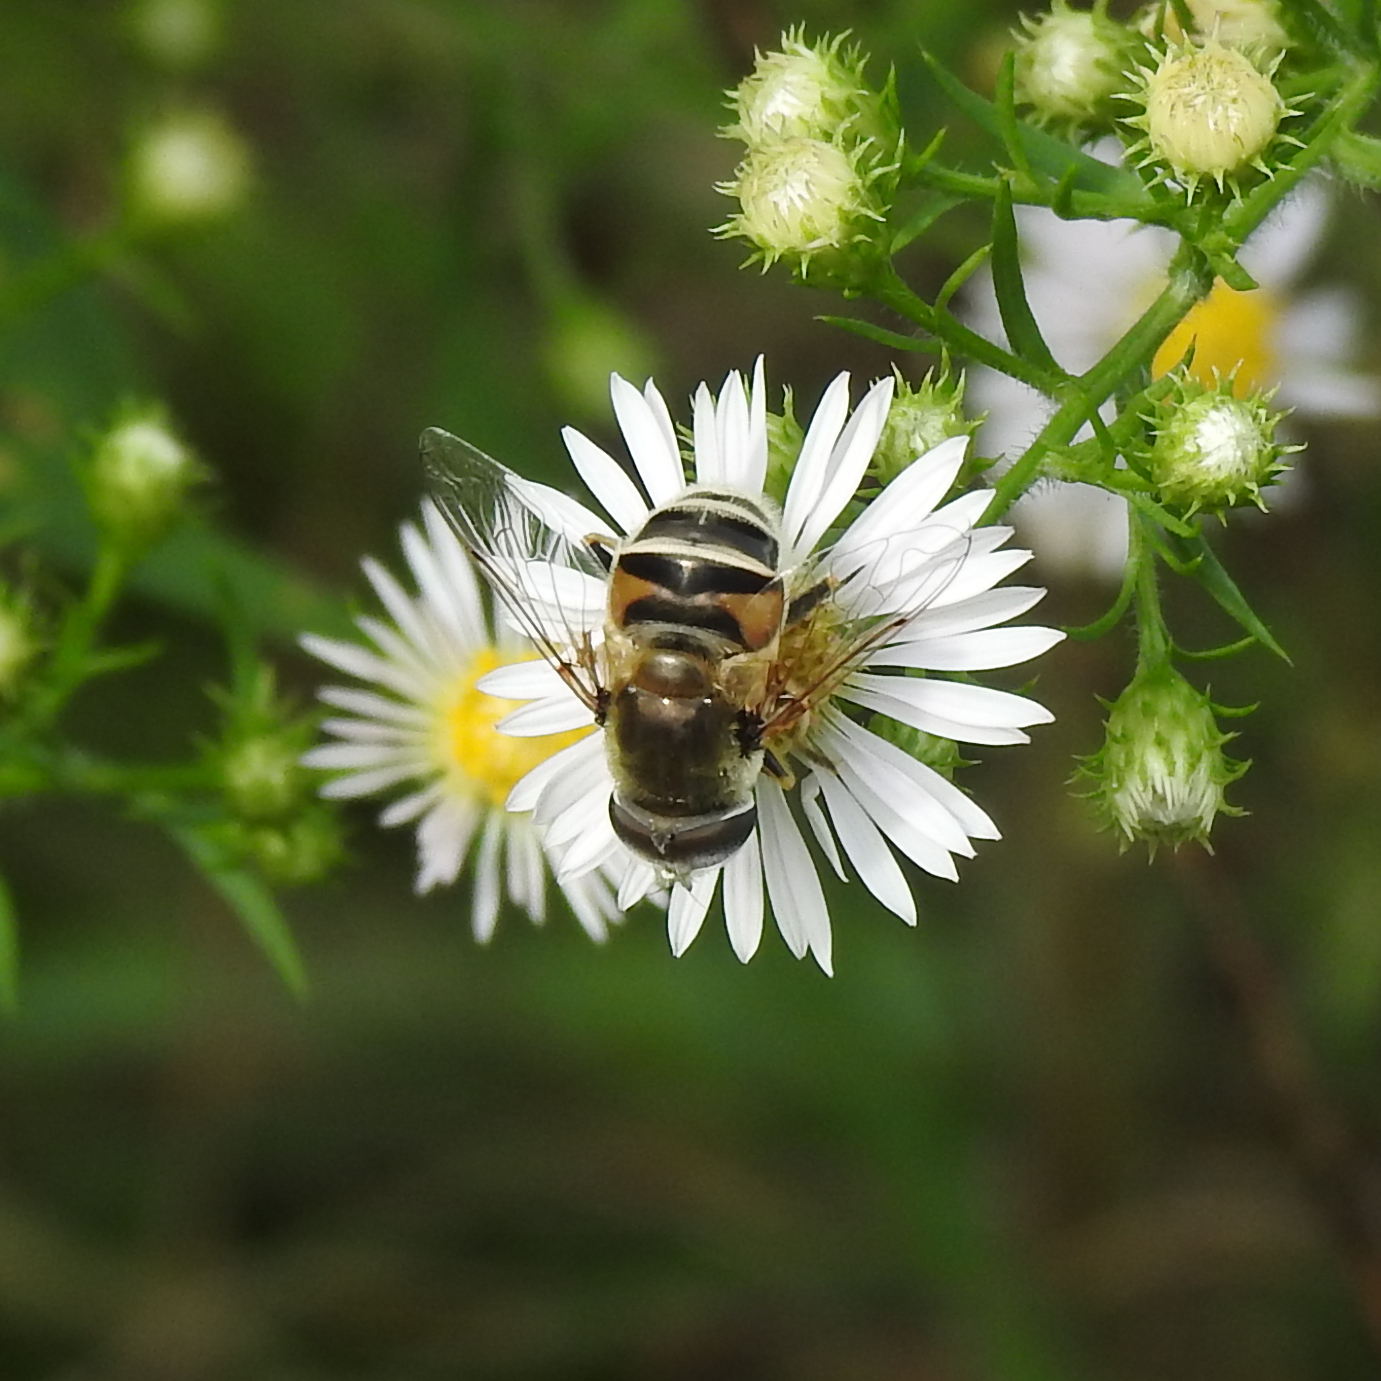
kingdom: Animalia
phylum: Arthropoda
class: Insecta
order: Diptera
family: Syrphidae
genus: Eristalis
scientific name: Eristalis stipator
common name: Yellow-shouldered drone fly
